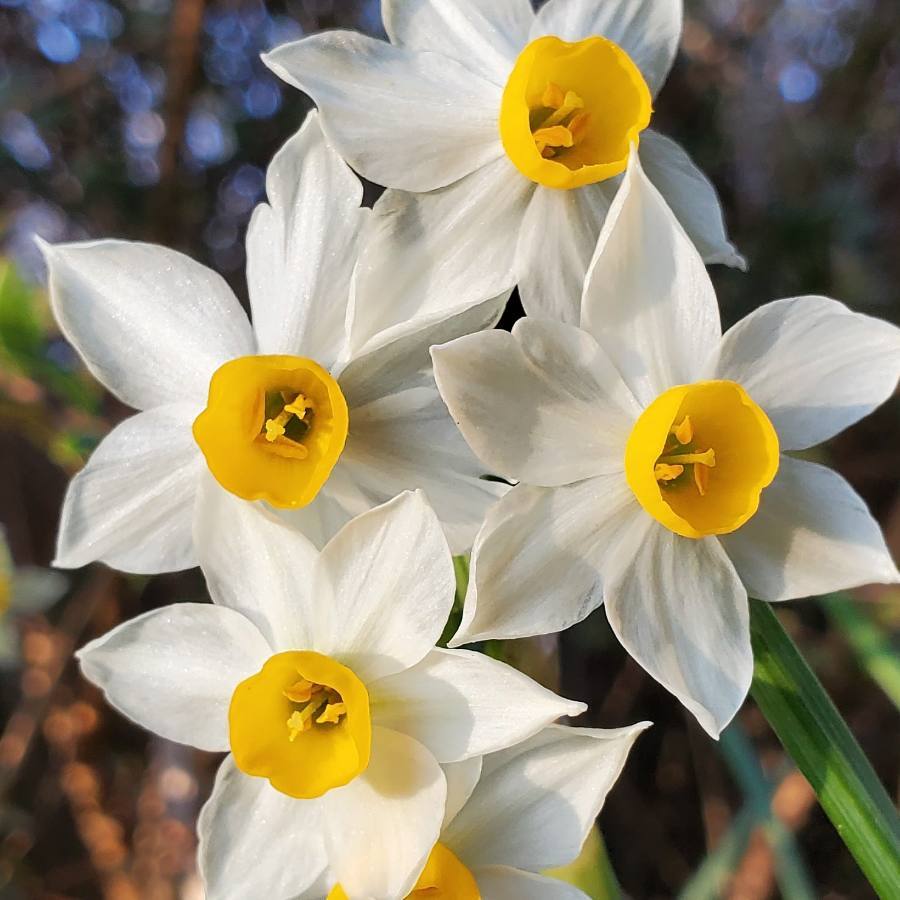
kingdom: Plantae
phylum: Tracheophyta
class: Liliopsida
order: Asparagales
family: Amaryllidaceae
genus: Narcissus
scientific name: Narcissus tazetta
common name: Bunch-flowered daffodil
